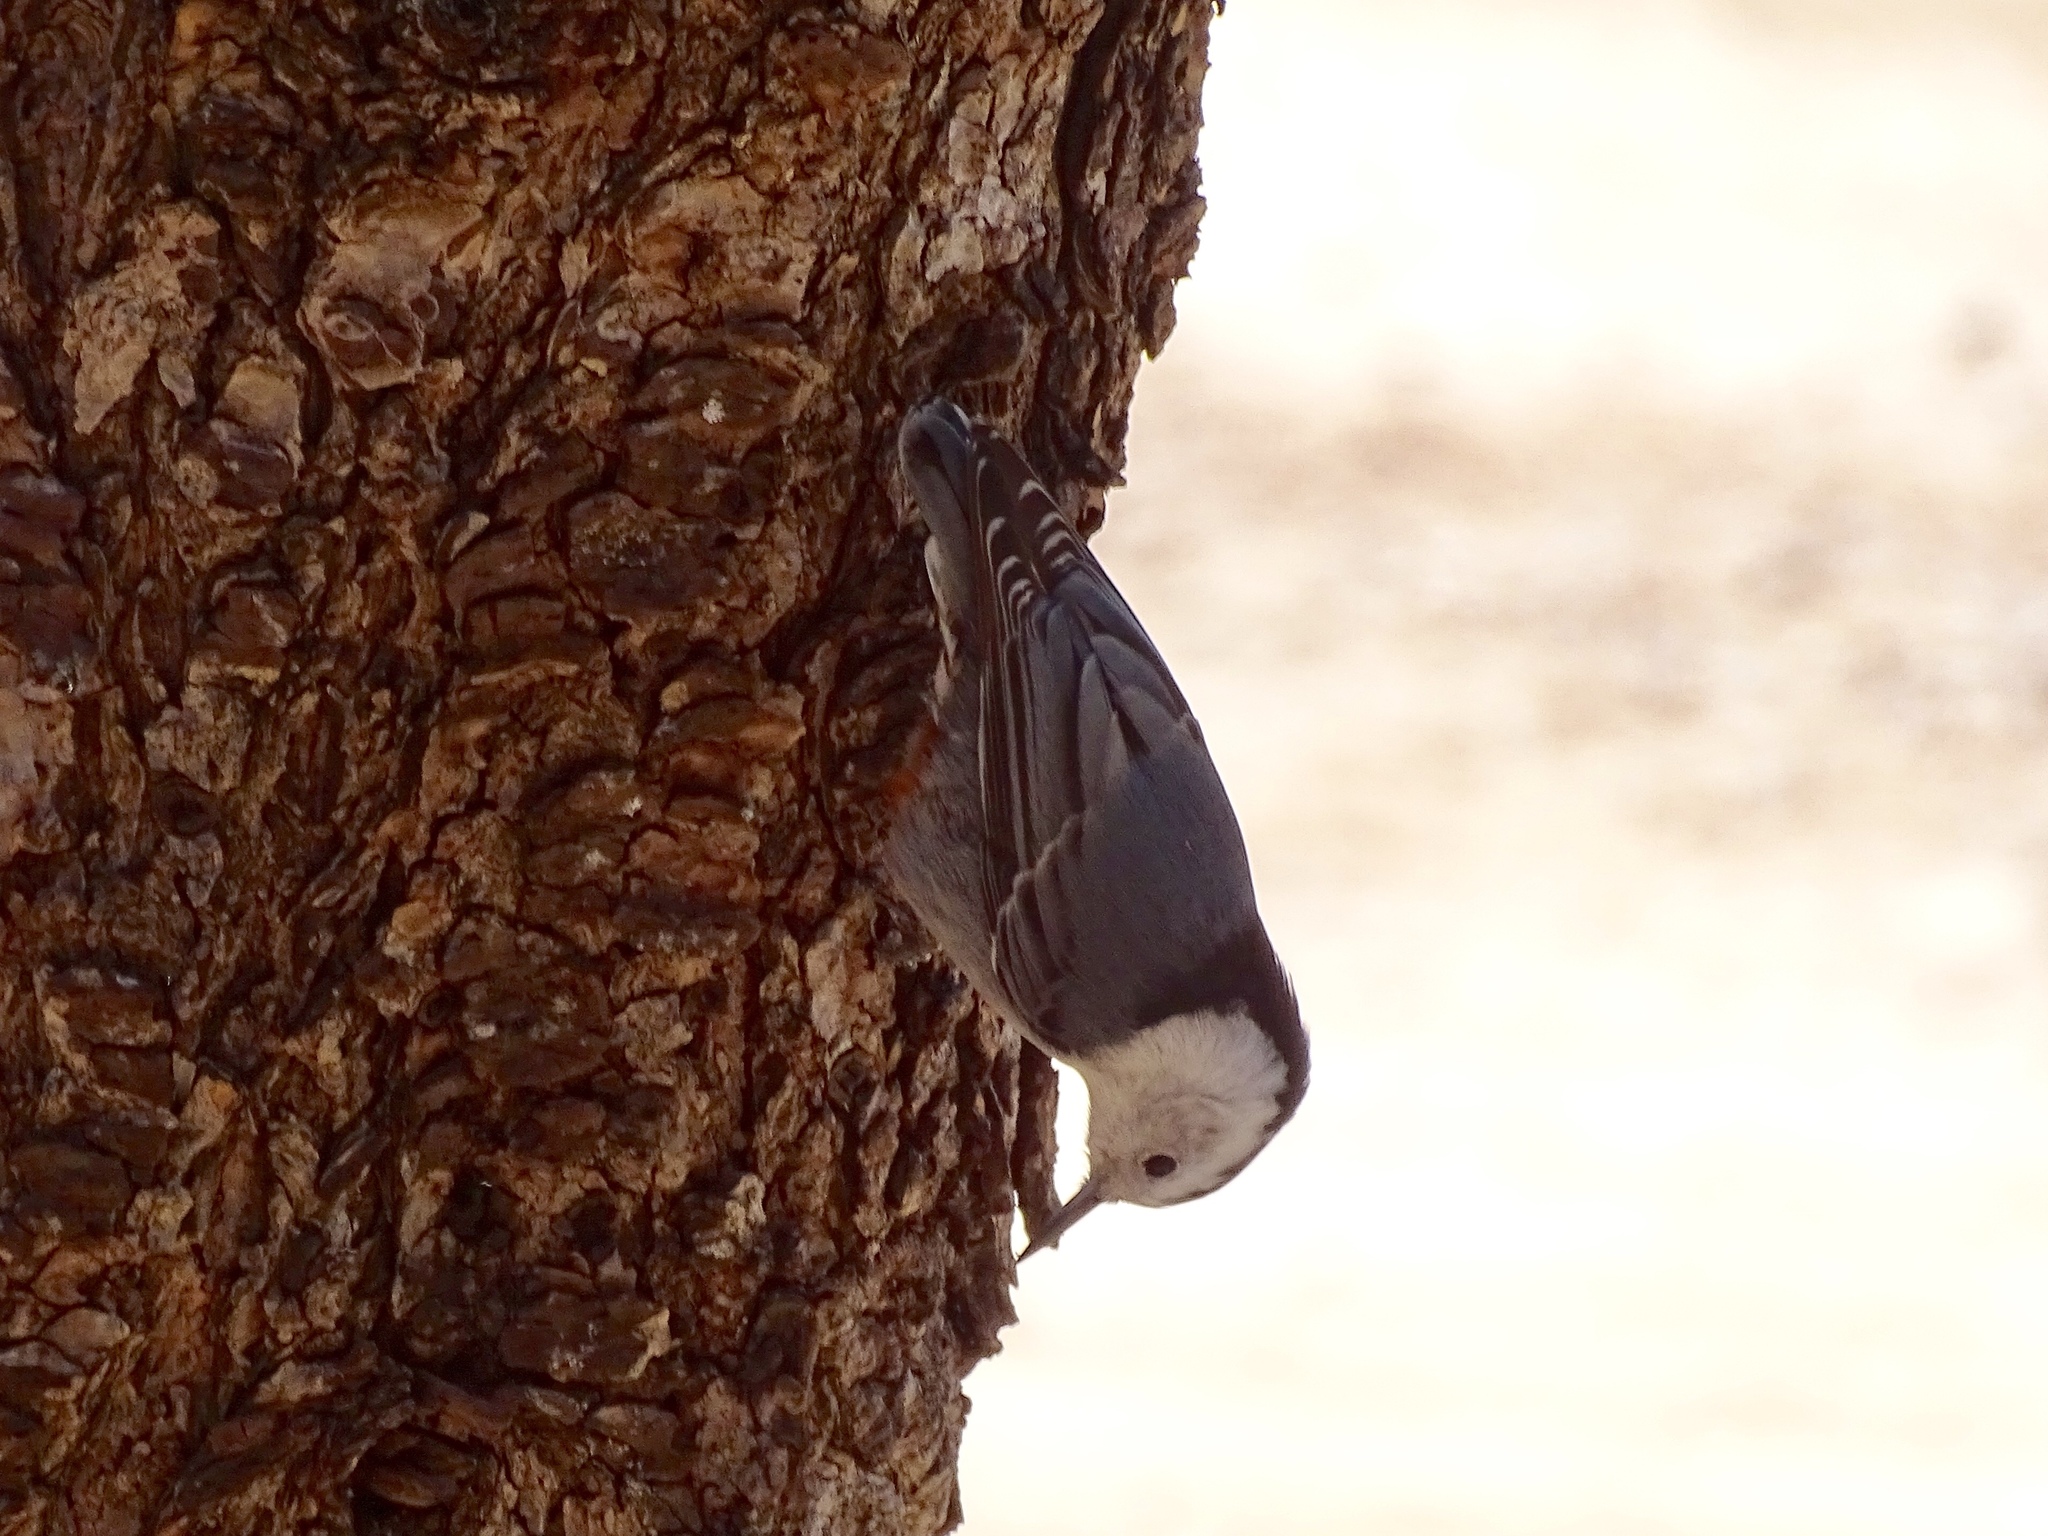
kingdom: Animalia
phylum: Chordata
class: Aves
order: Passeriformes
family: Sittidae
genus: Sitta
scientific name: Sitta carolinensis
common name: White-breasted nuthatch
